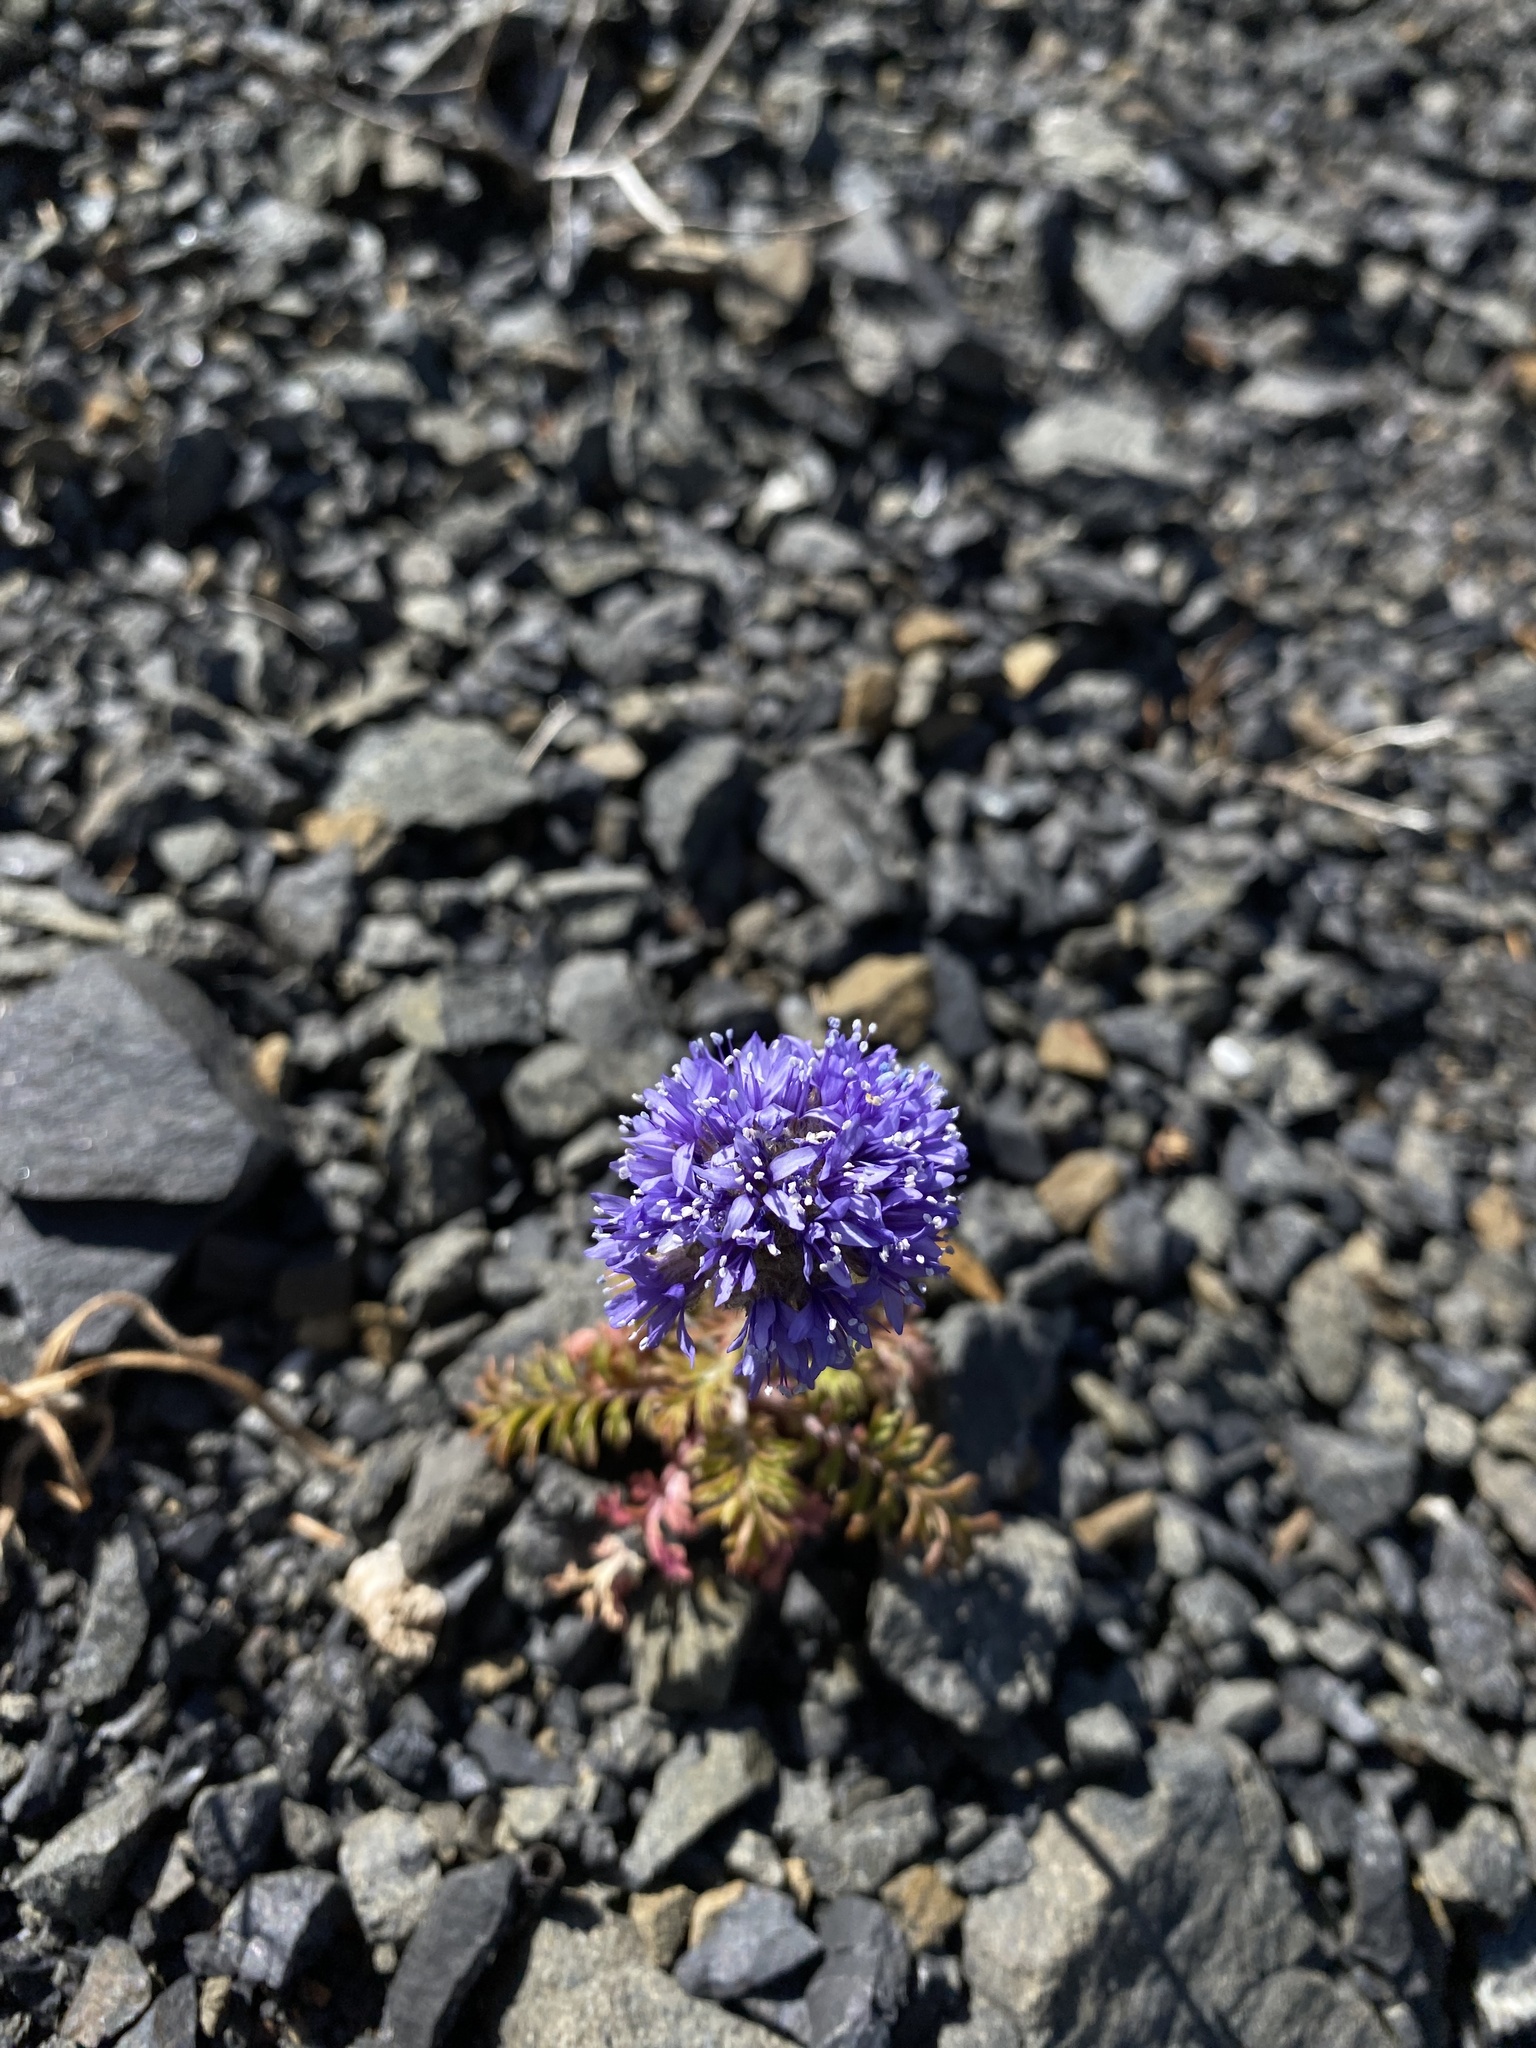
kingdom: Plantae
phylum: Tracheophyta
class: Magnoliopsida
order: Ericales
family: Polemoniaceae
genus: Gilia
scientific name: Gilia capitata
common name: Bluehead gilia
